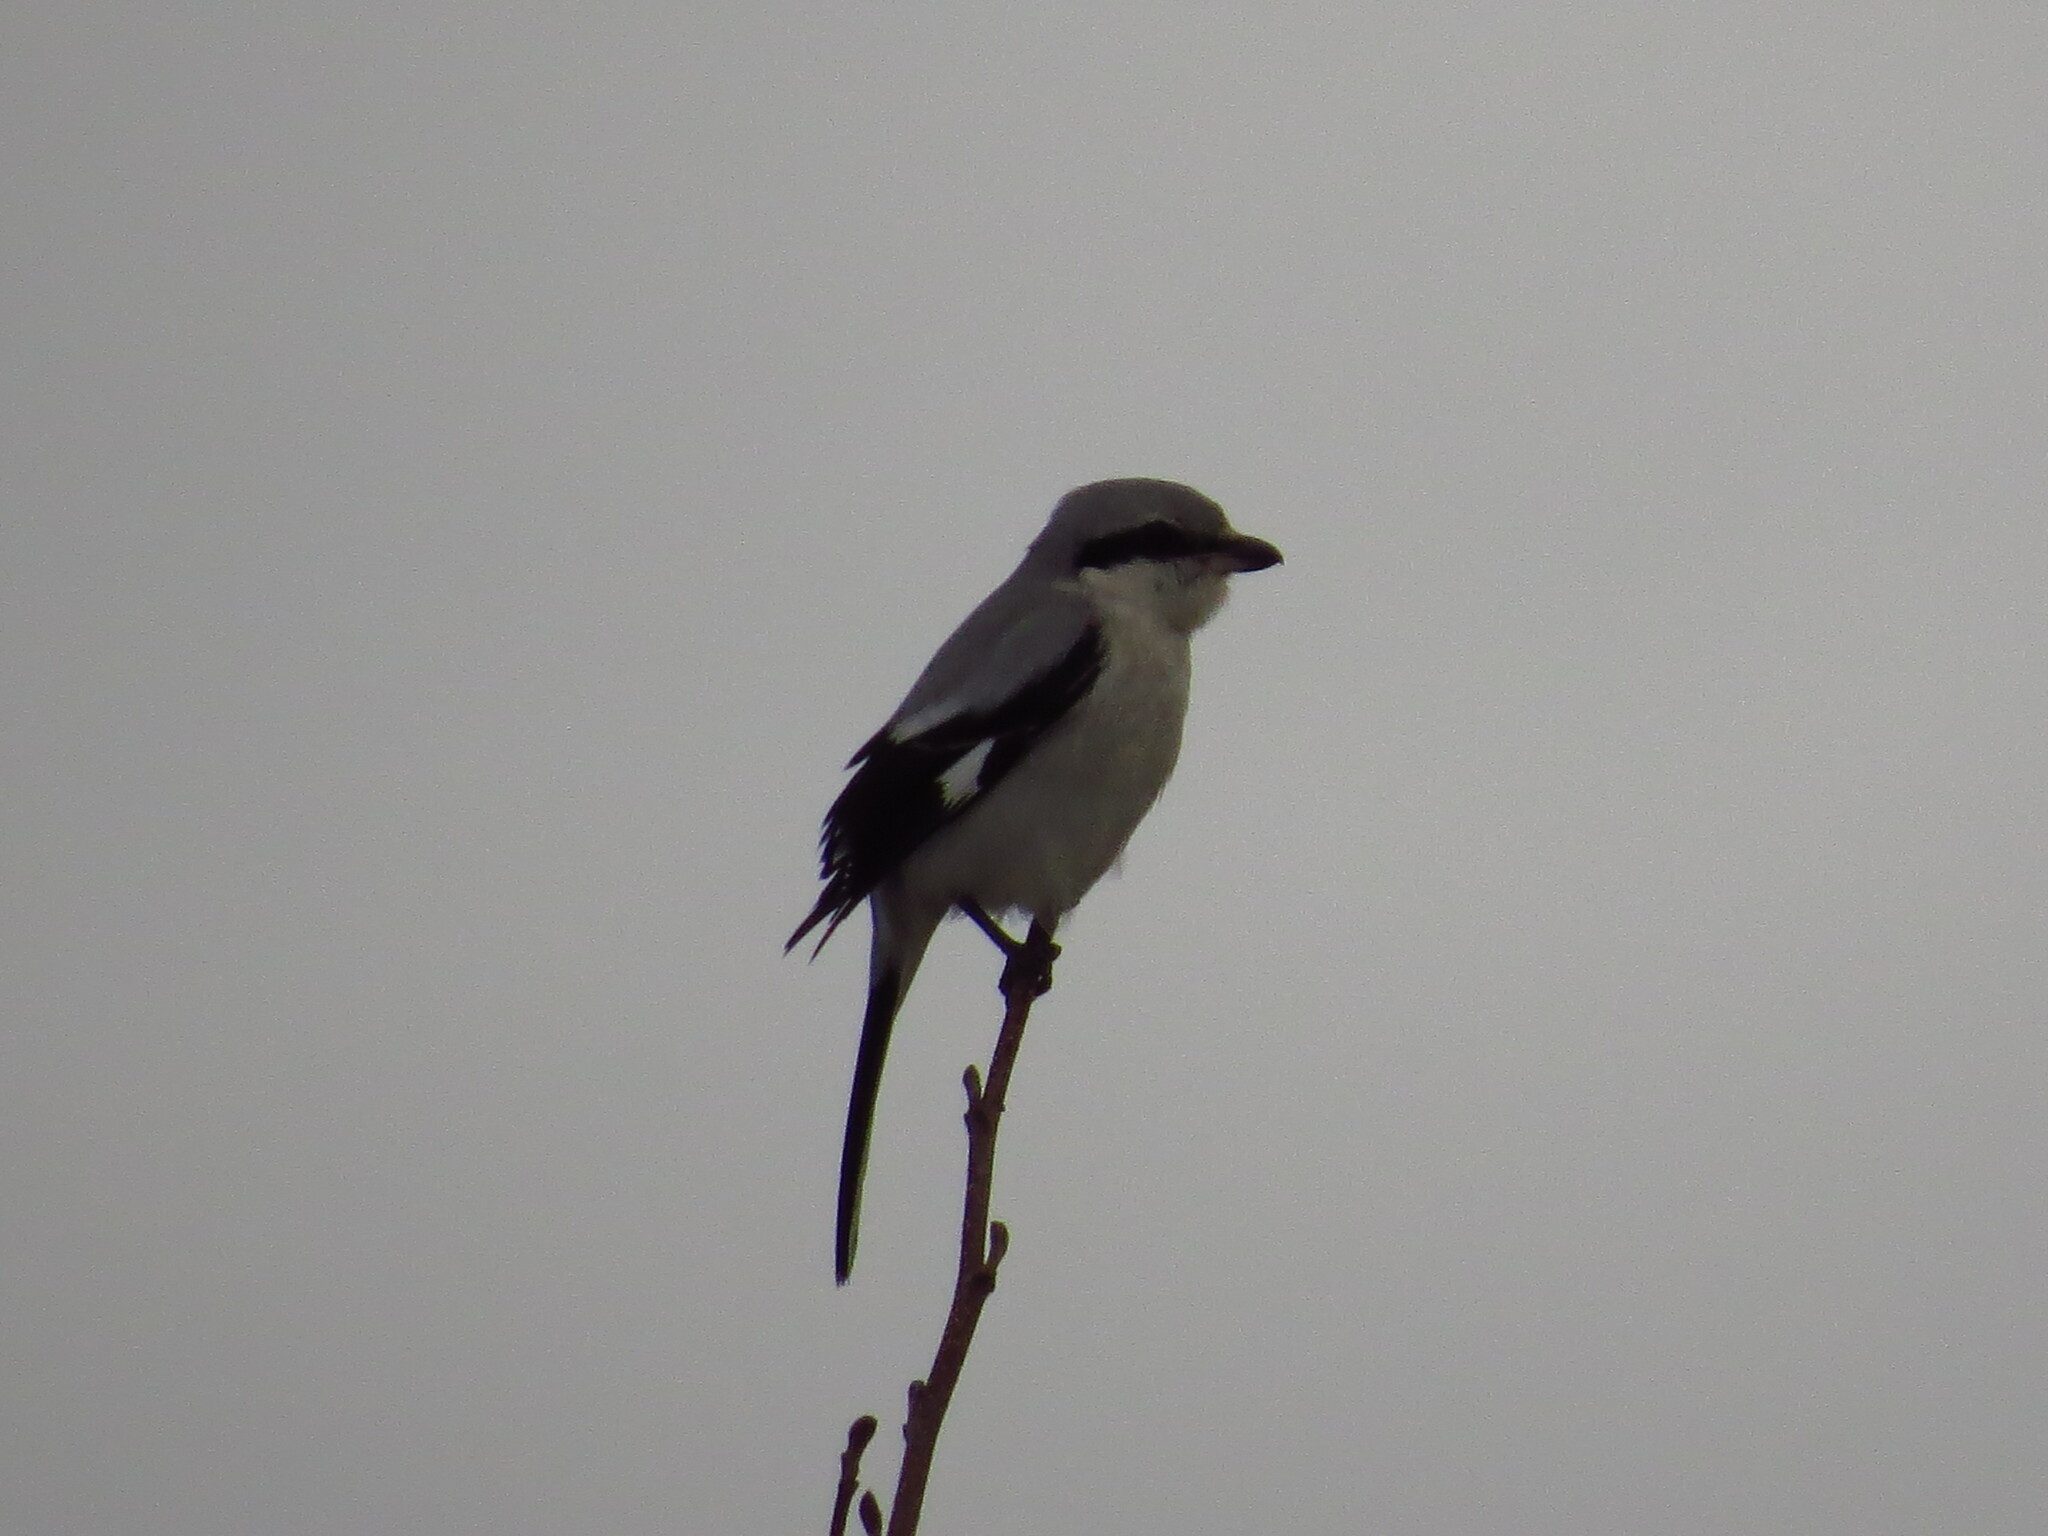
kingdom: Animalia
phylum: Chordata
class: Aves
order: Passeriformes
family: Laniidae
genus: Lanius
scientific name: Lanius excubitor
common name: Great grey shrike
